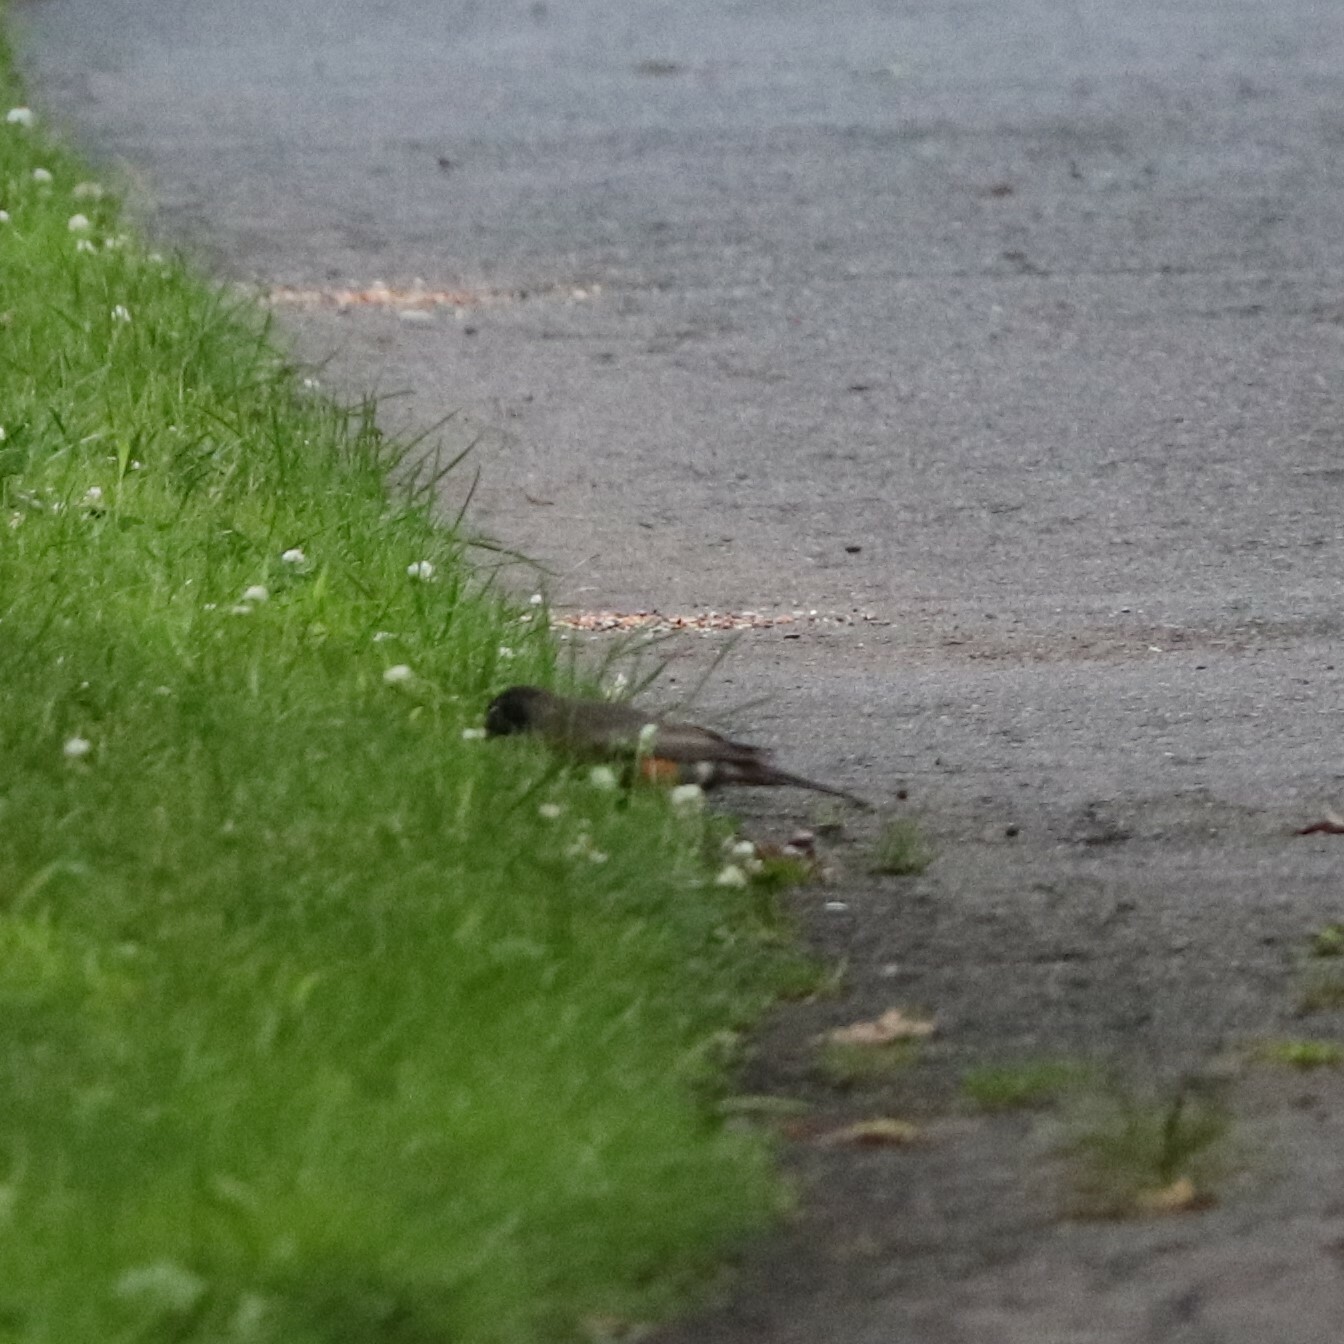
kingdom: Animalia
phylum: Chordata
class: Aves
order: Passeriformes
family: Turdidae
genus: Turdus
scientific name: Turdus migratorius
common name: American robin
